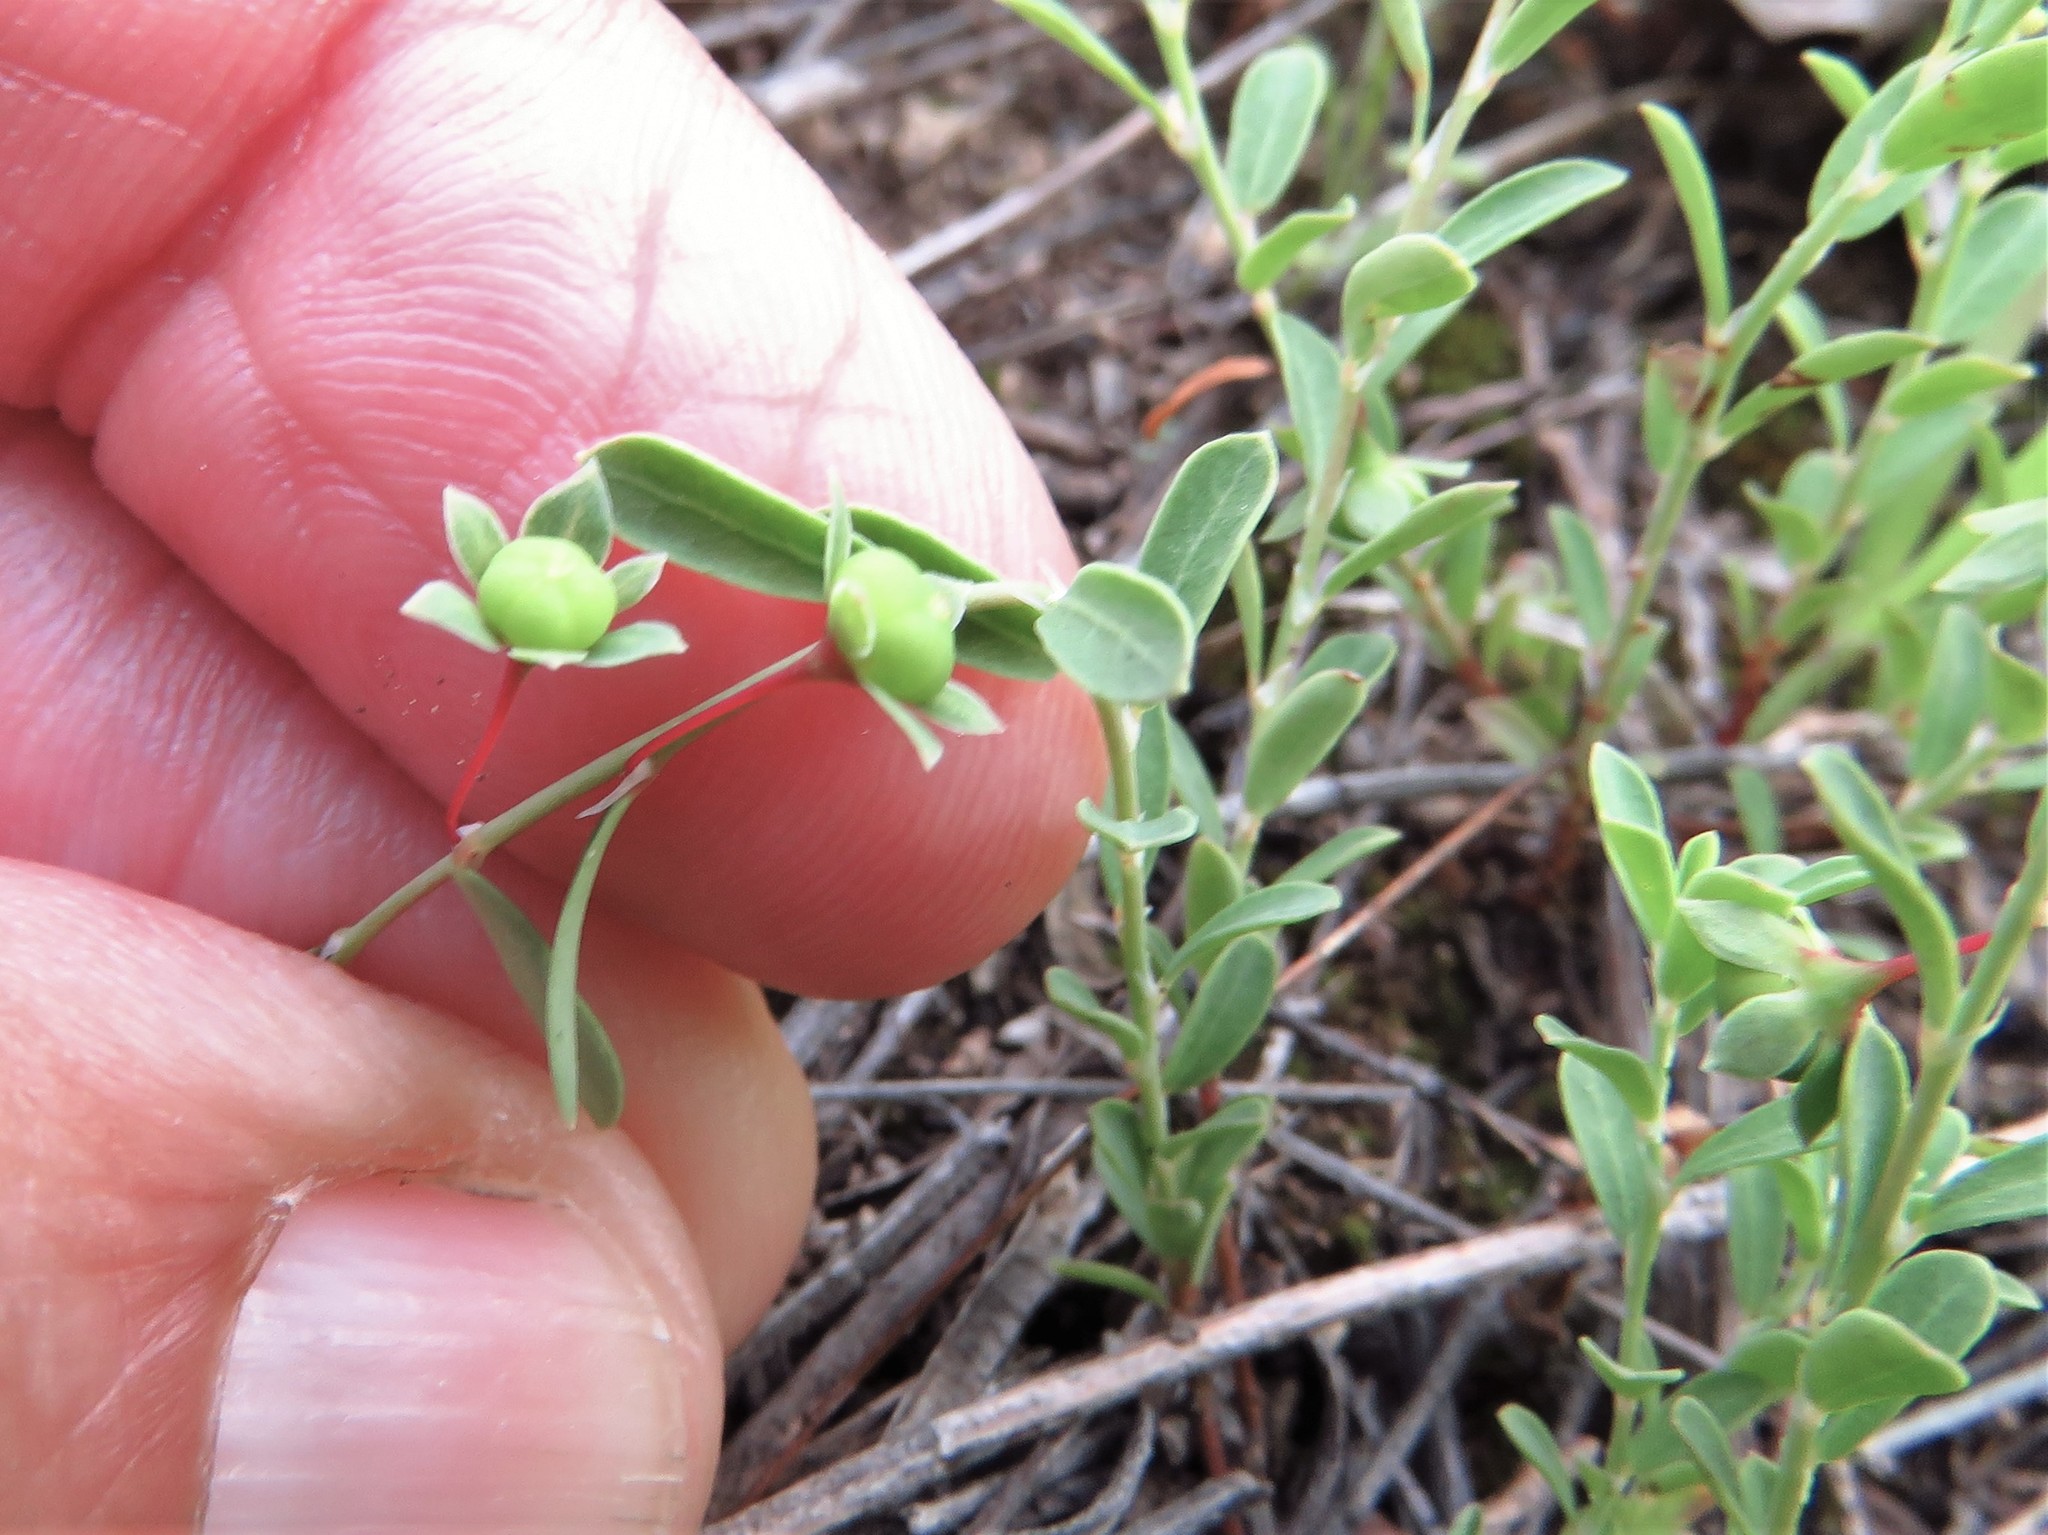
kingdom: Plantae
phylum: Tracheophyta
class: Magnoliopsida
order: Malpighiales
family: Phyllanthaceae
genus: Phyllanthus
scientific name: Phyllanthus polygonoides
